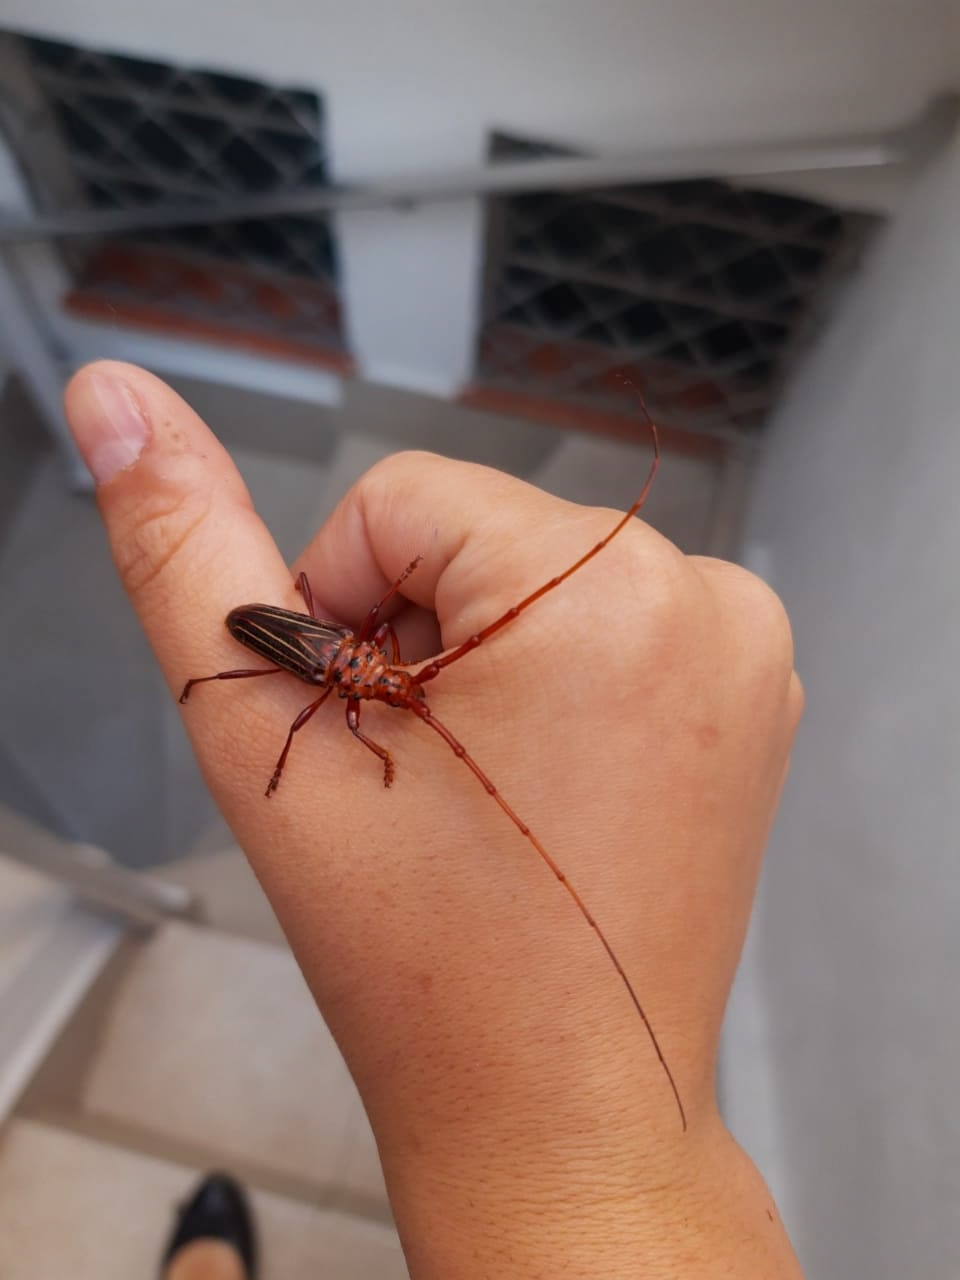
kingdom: Animalia
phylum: Arthropoda
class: Insecta
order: Coleoptera
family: Cerambycidae
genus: Chydarteres
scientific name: Chydarteres striatus
